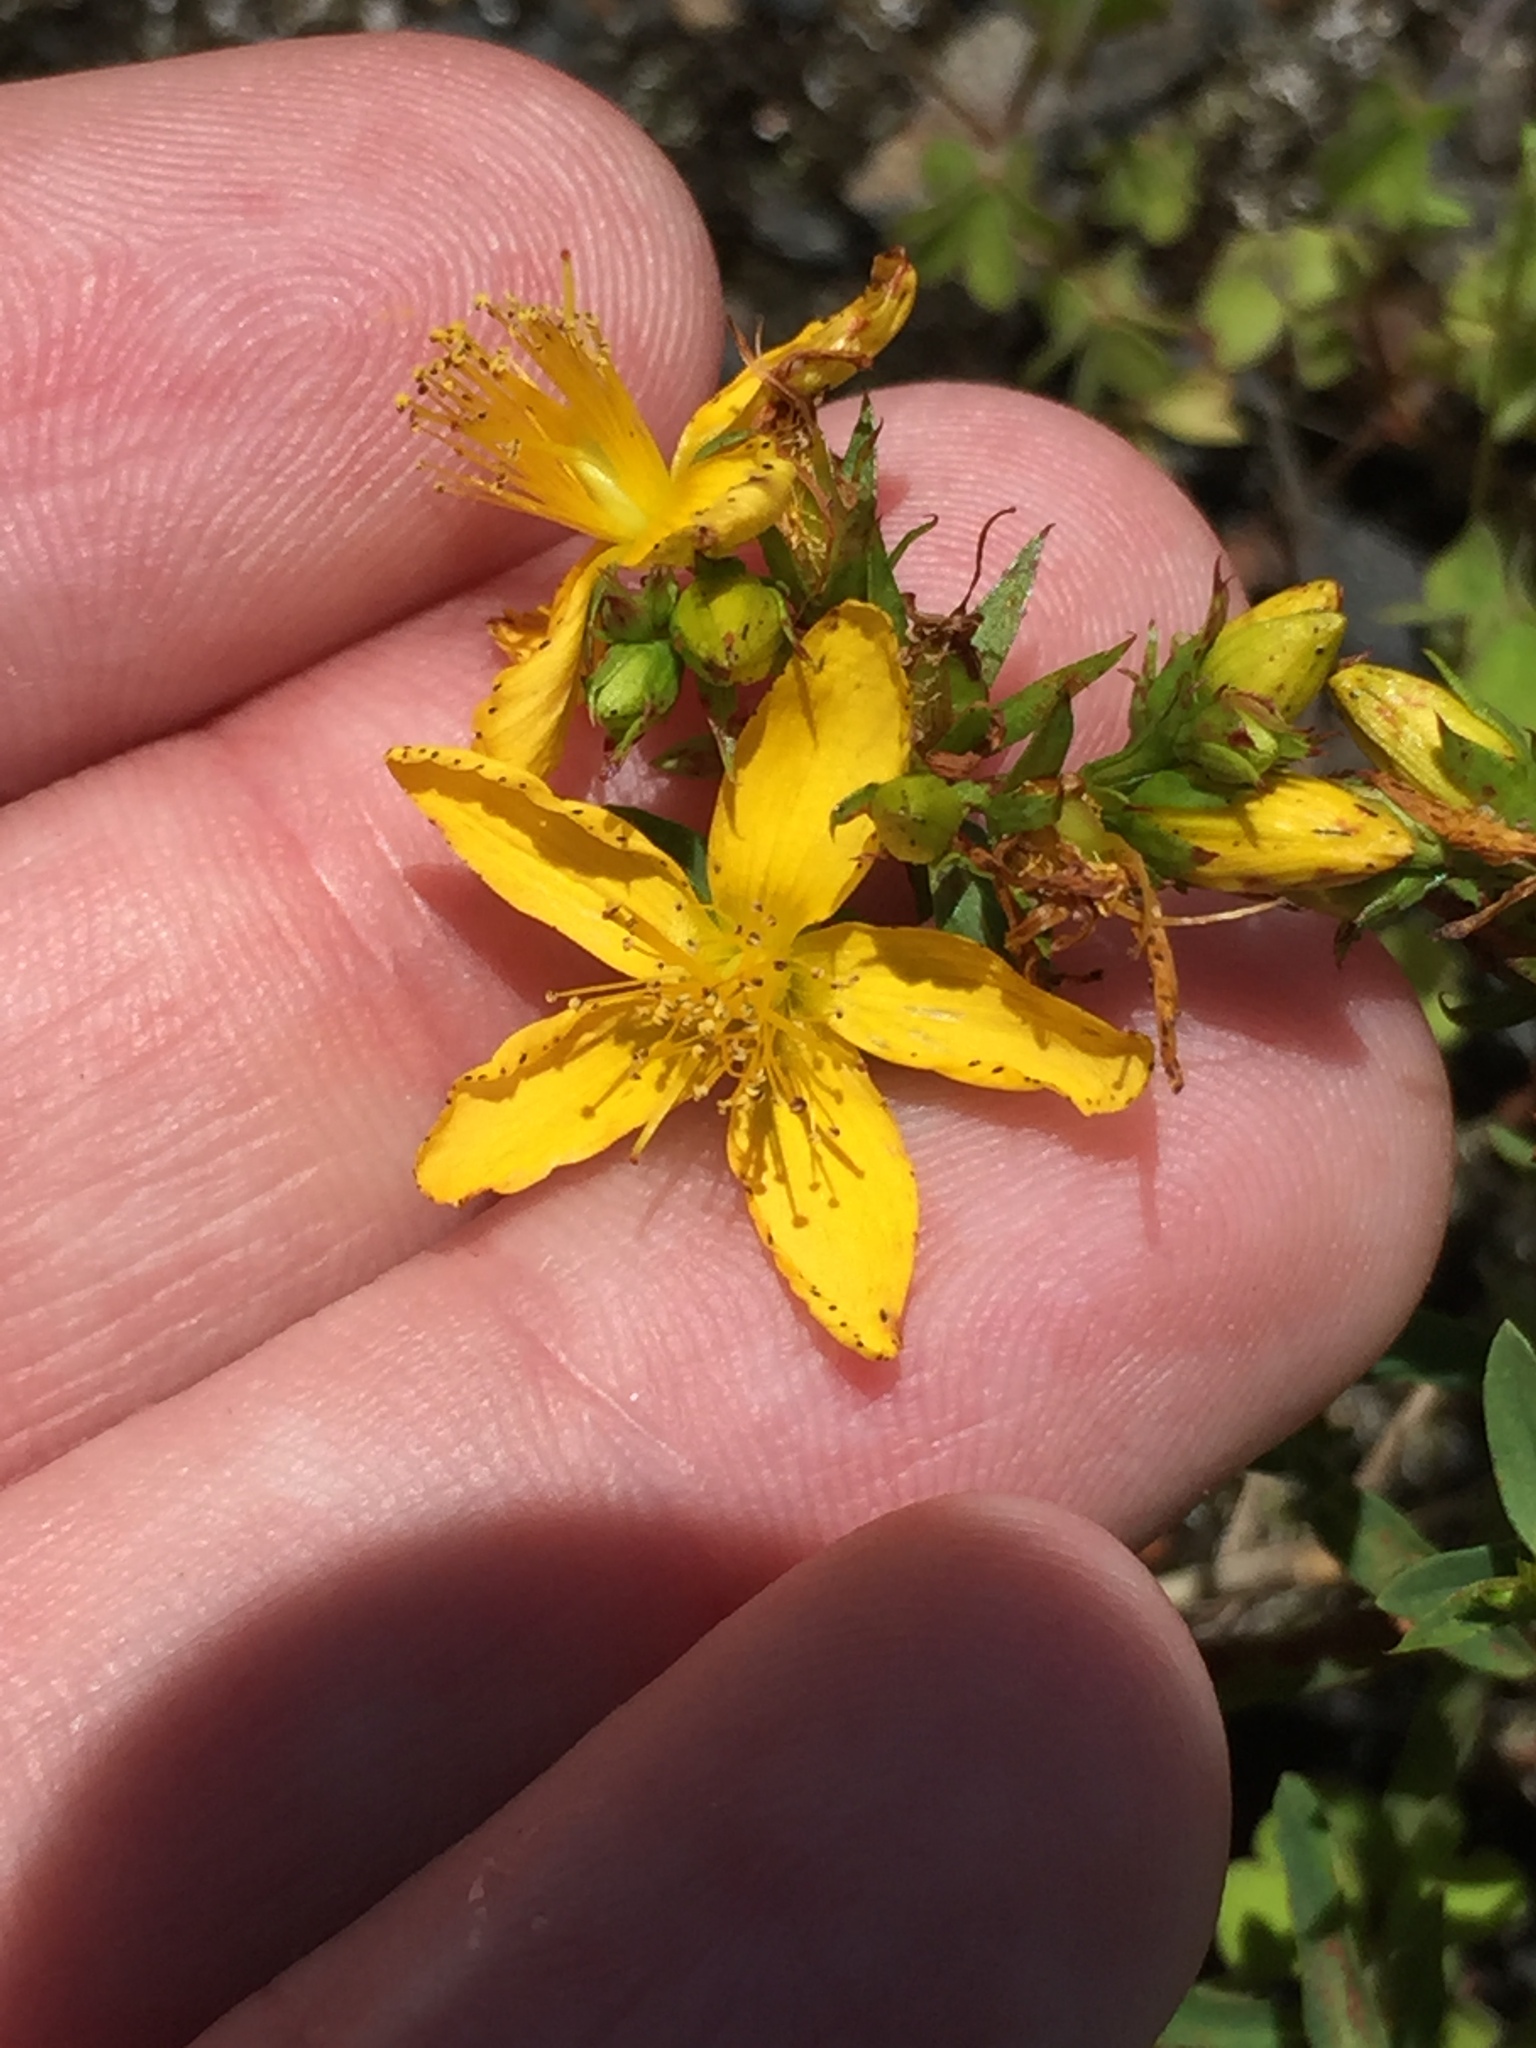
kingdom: Plantae
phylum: Tracheophyta
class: Magnoliopsida
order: Malpighiales
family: Hypericaceae
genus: Hypericum
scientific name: Hypericum perforatum
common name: Common st. johnswort
